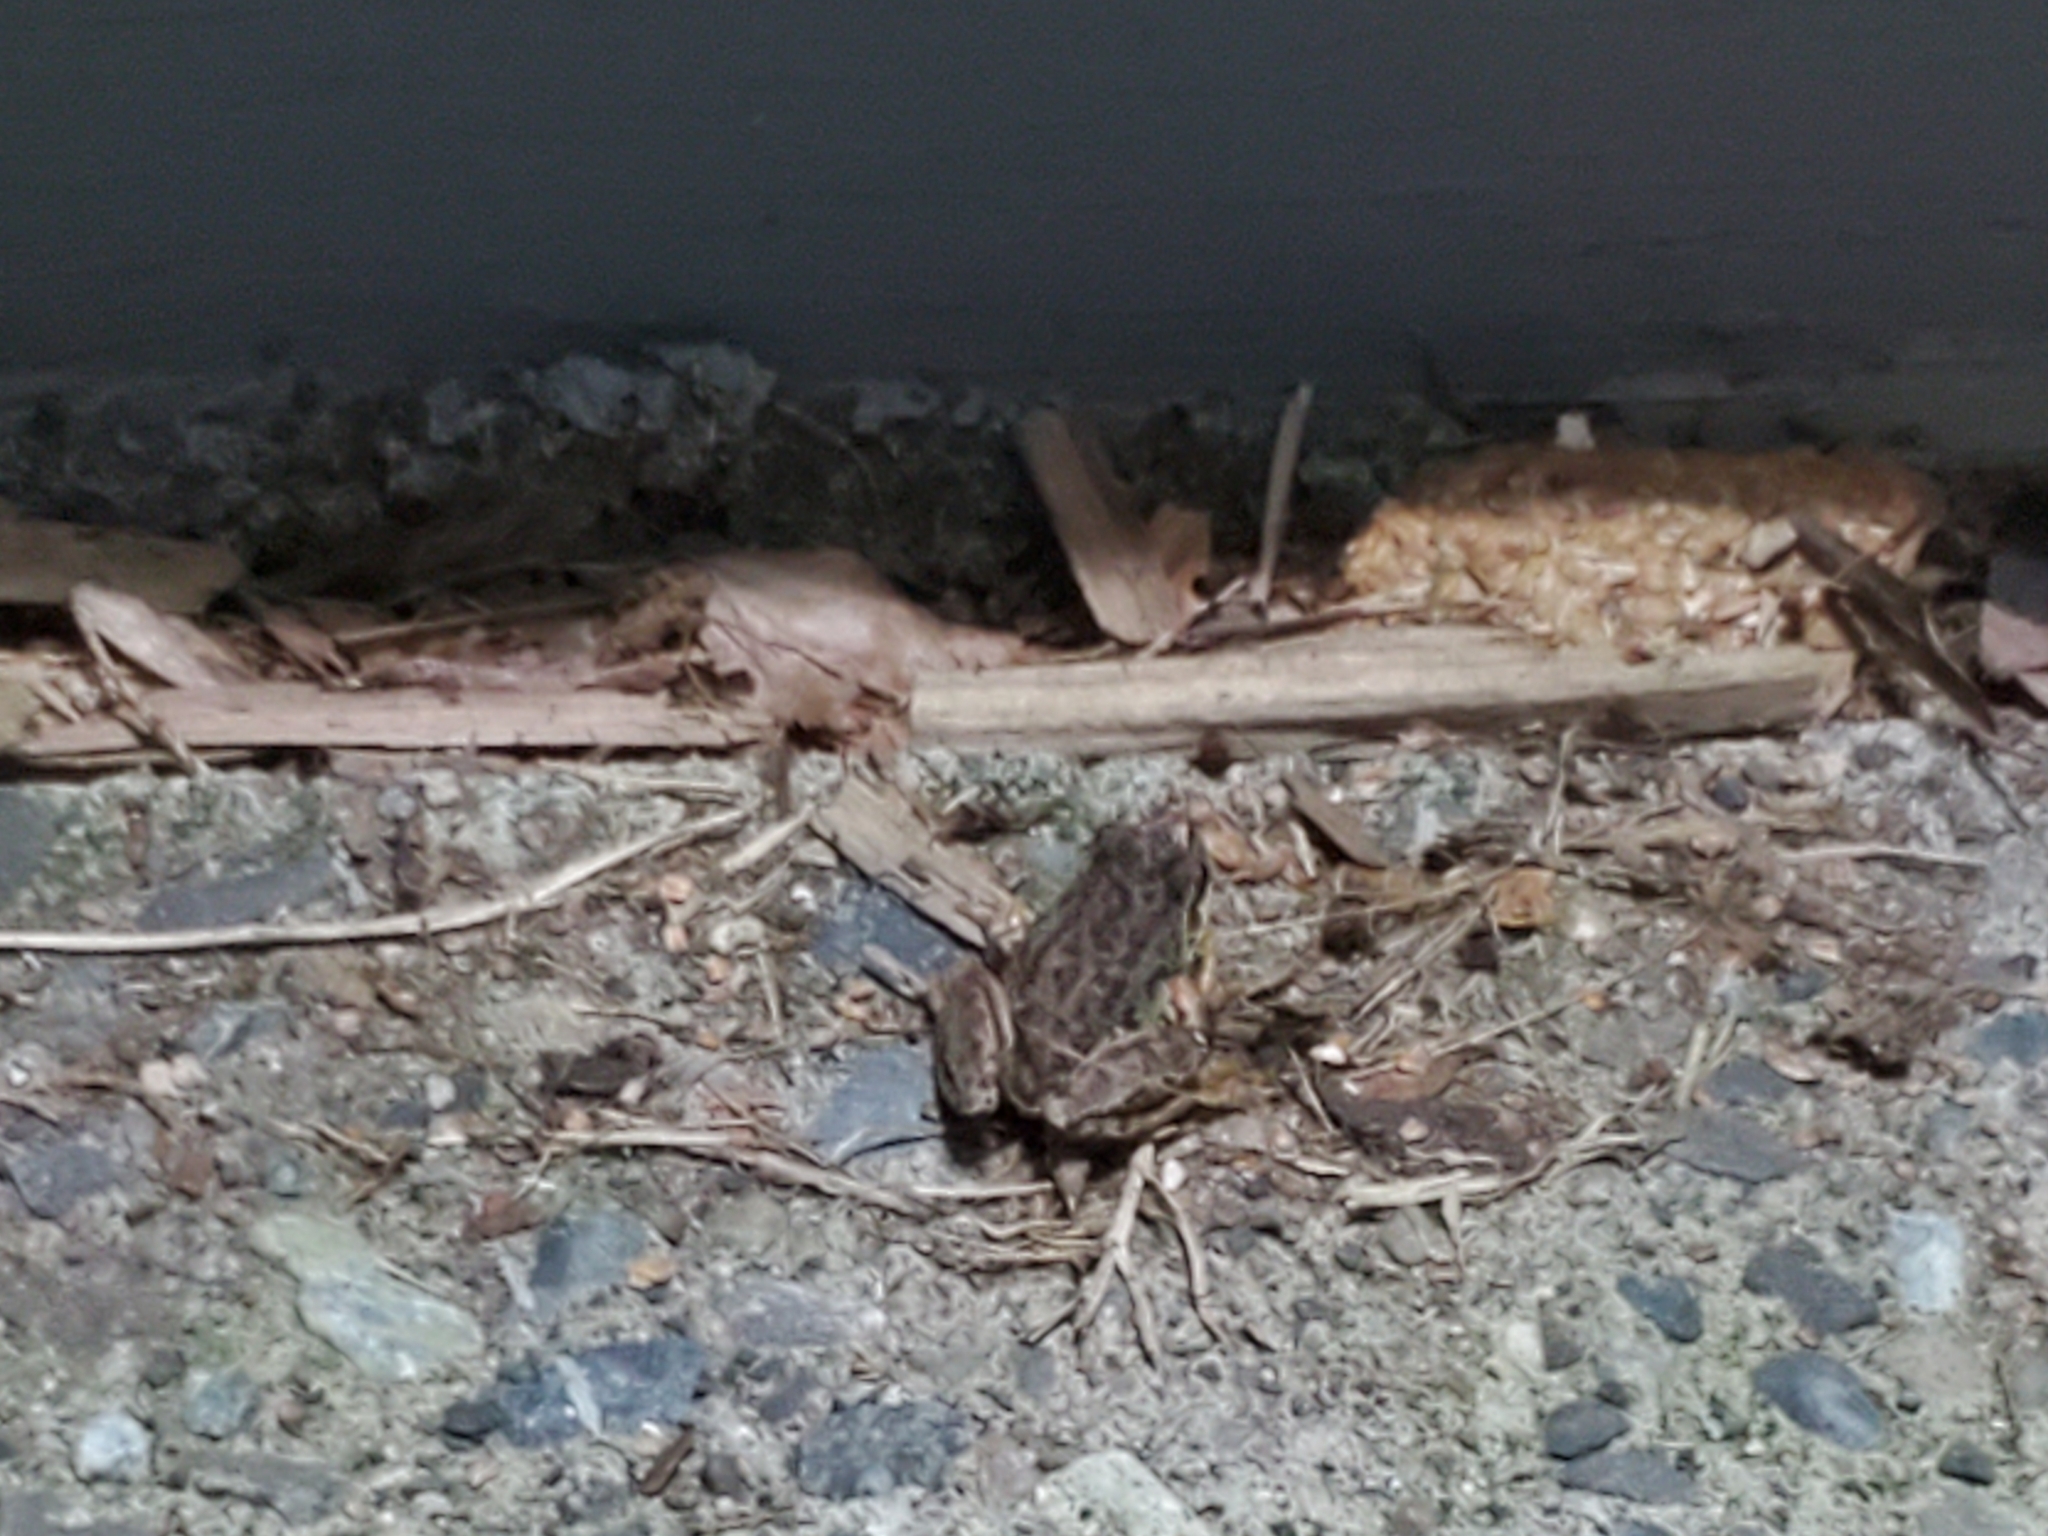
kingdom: Animalia
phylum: Chordata
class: Amphibia
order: Anura
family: Hylidae
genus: Pseudacris
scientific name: Pseudacris regilla
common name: Pacific chorus frog
